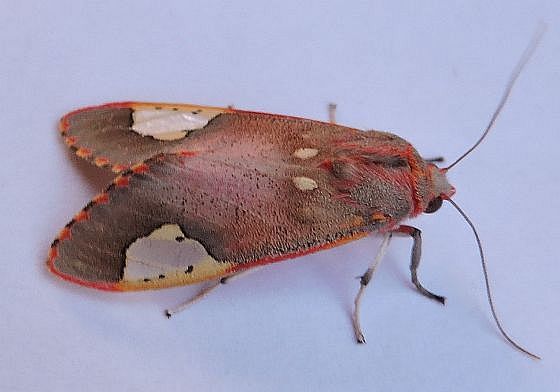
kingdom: Animalia
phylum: Arthropoda
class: Insecta
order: Lepidoptera
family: Erebidae
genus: Bertholdia
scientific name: Bertholdia trigona
